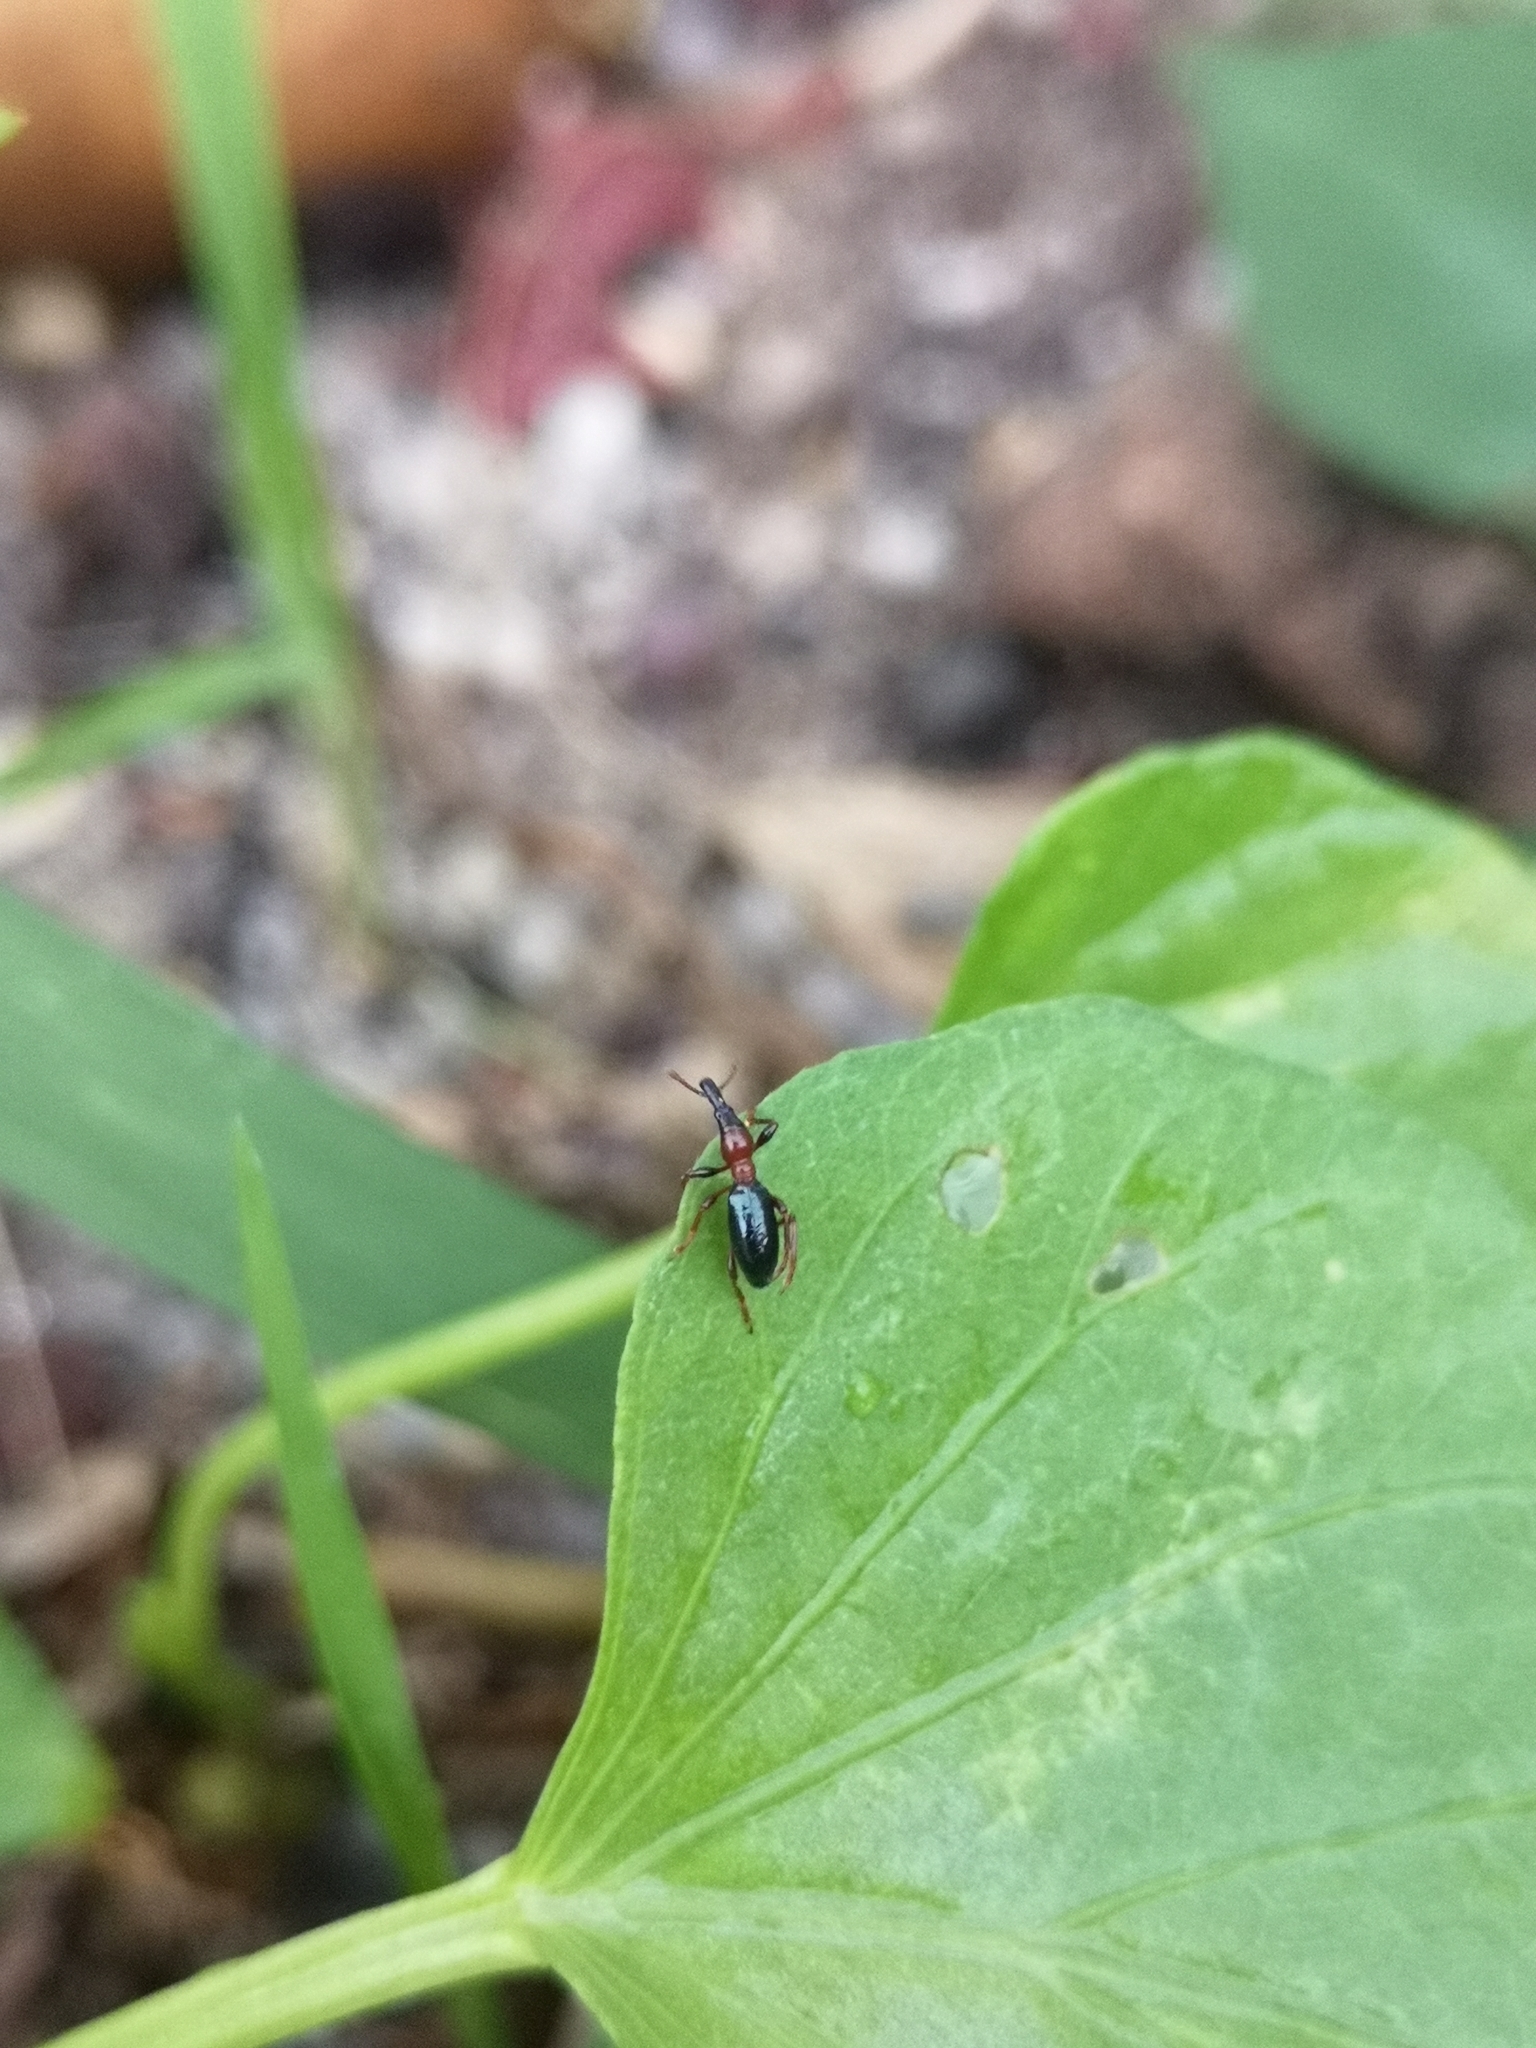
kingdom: Animalia
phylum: Arthropoda
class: Insecta
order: Coleoptera
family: Brentidae
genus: Cylas
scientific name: Cylas formicarius
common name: Sweetpotato weevil
